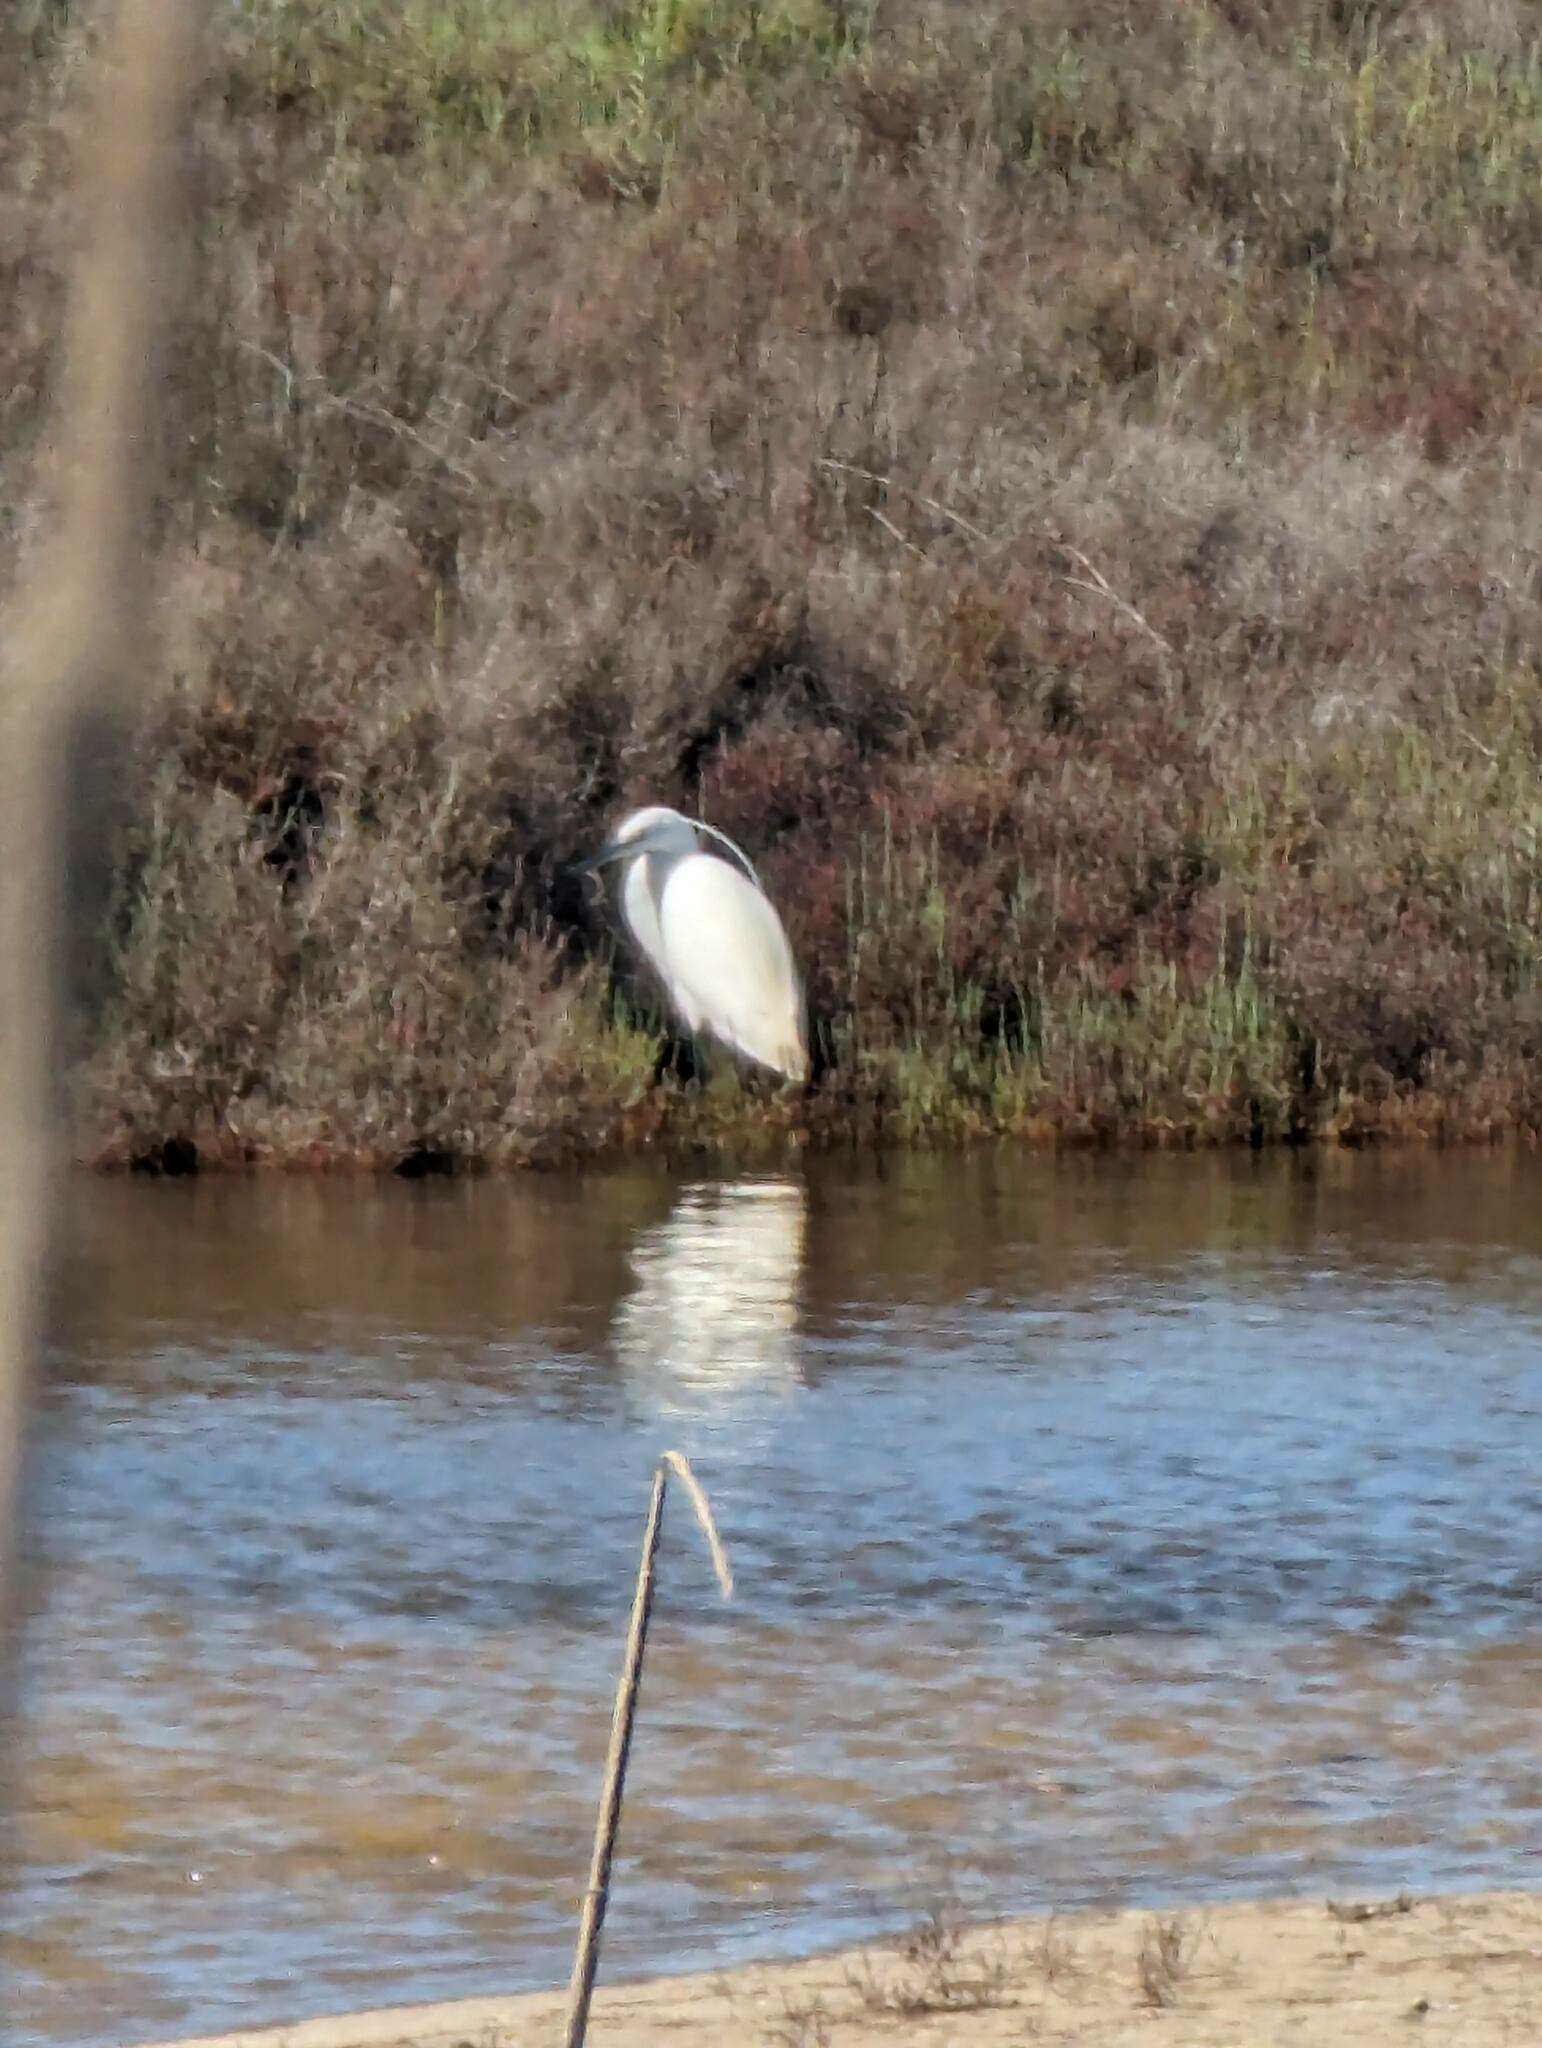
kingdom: Animalia
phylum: Chordata
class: Aves
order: Pelecaniformes
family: Ardeidae
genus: Egretta
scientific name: Egretta garzetta
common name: Little egret
